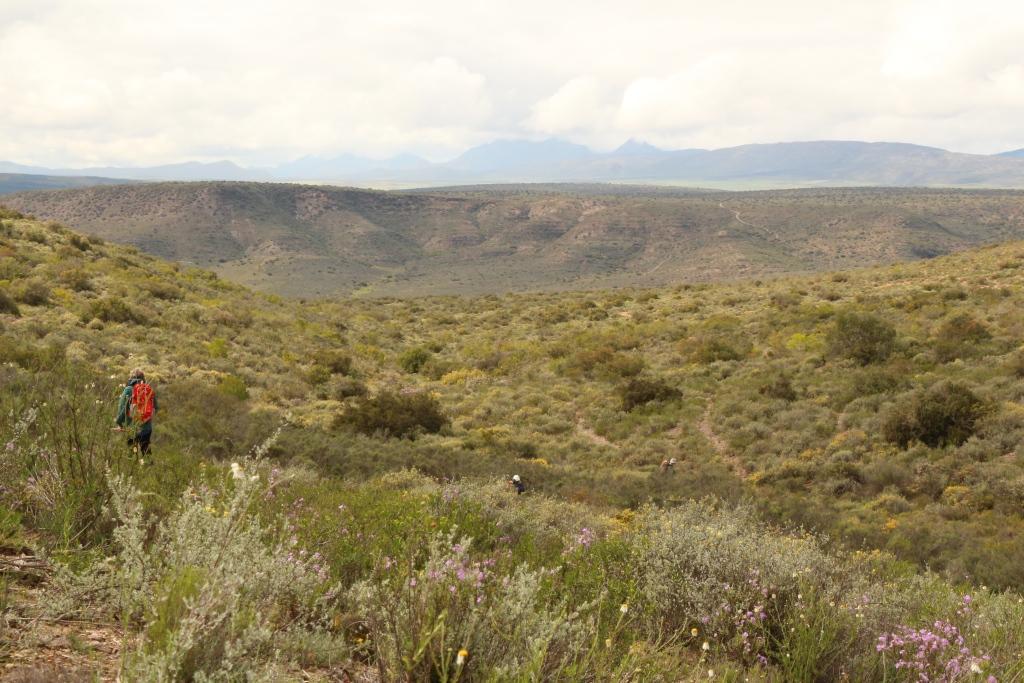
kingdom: Plantae
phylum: Tracheophyta
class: Magnoliopsida
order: Asterales
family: Asteraceae
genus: Phymaspermum
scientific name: Phymaspermum leptophyllum
